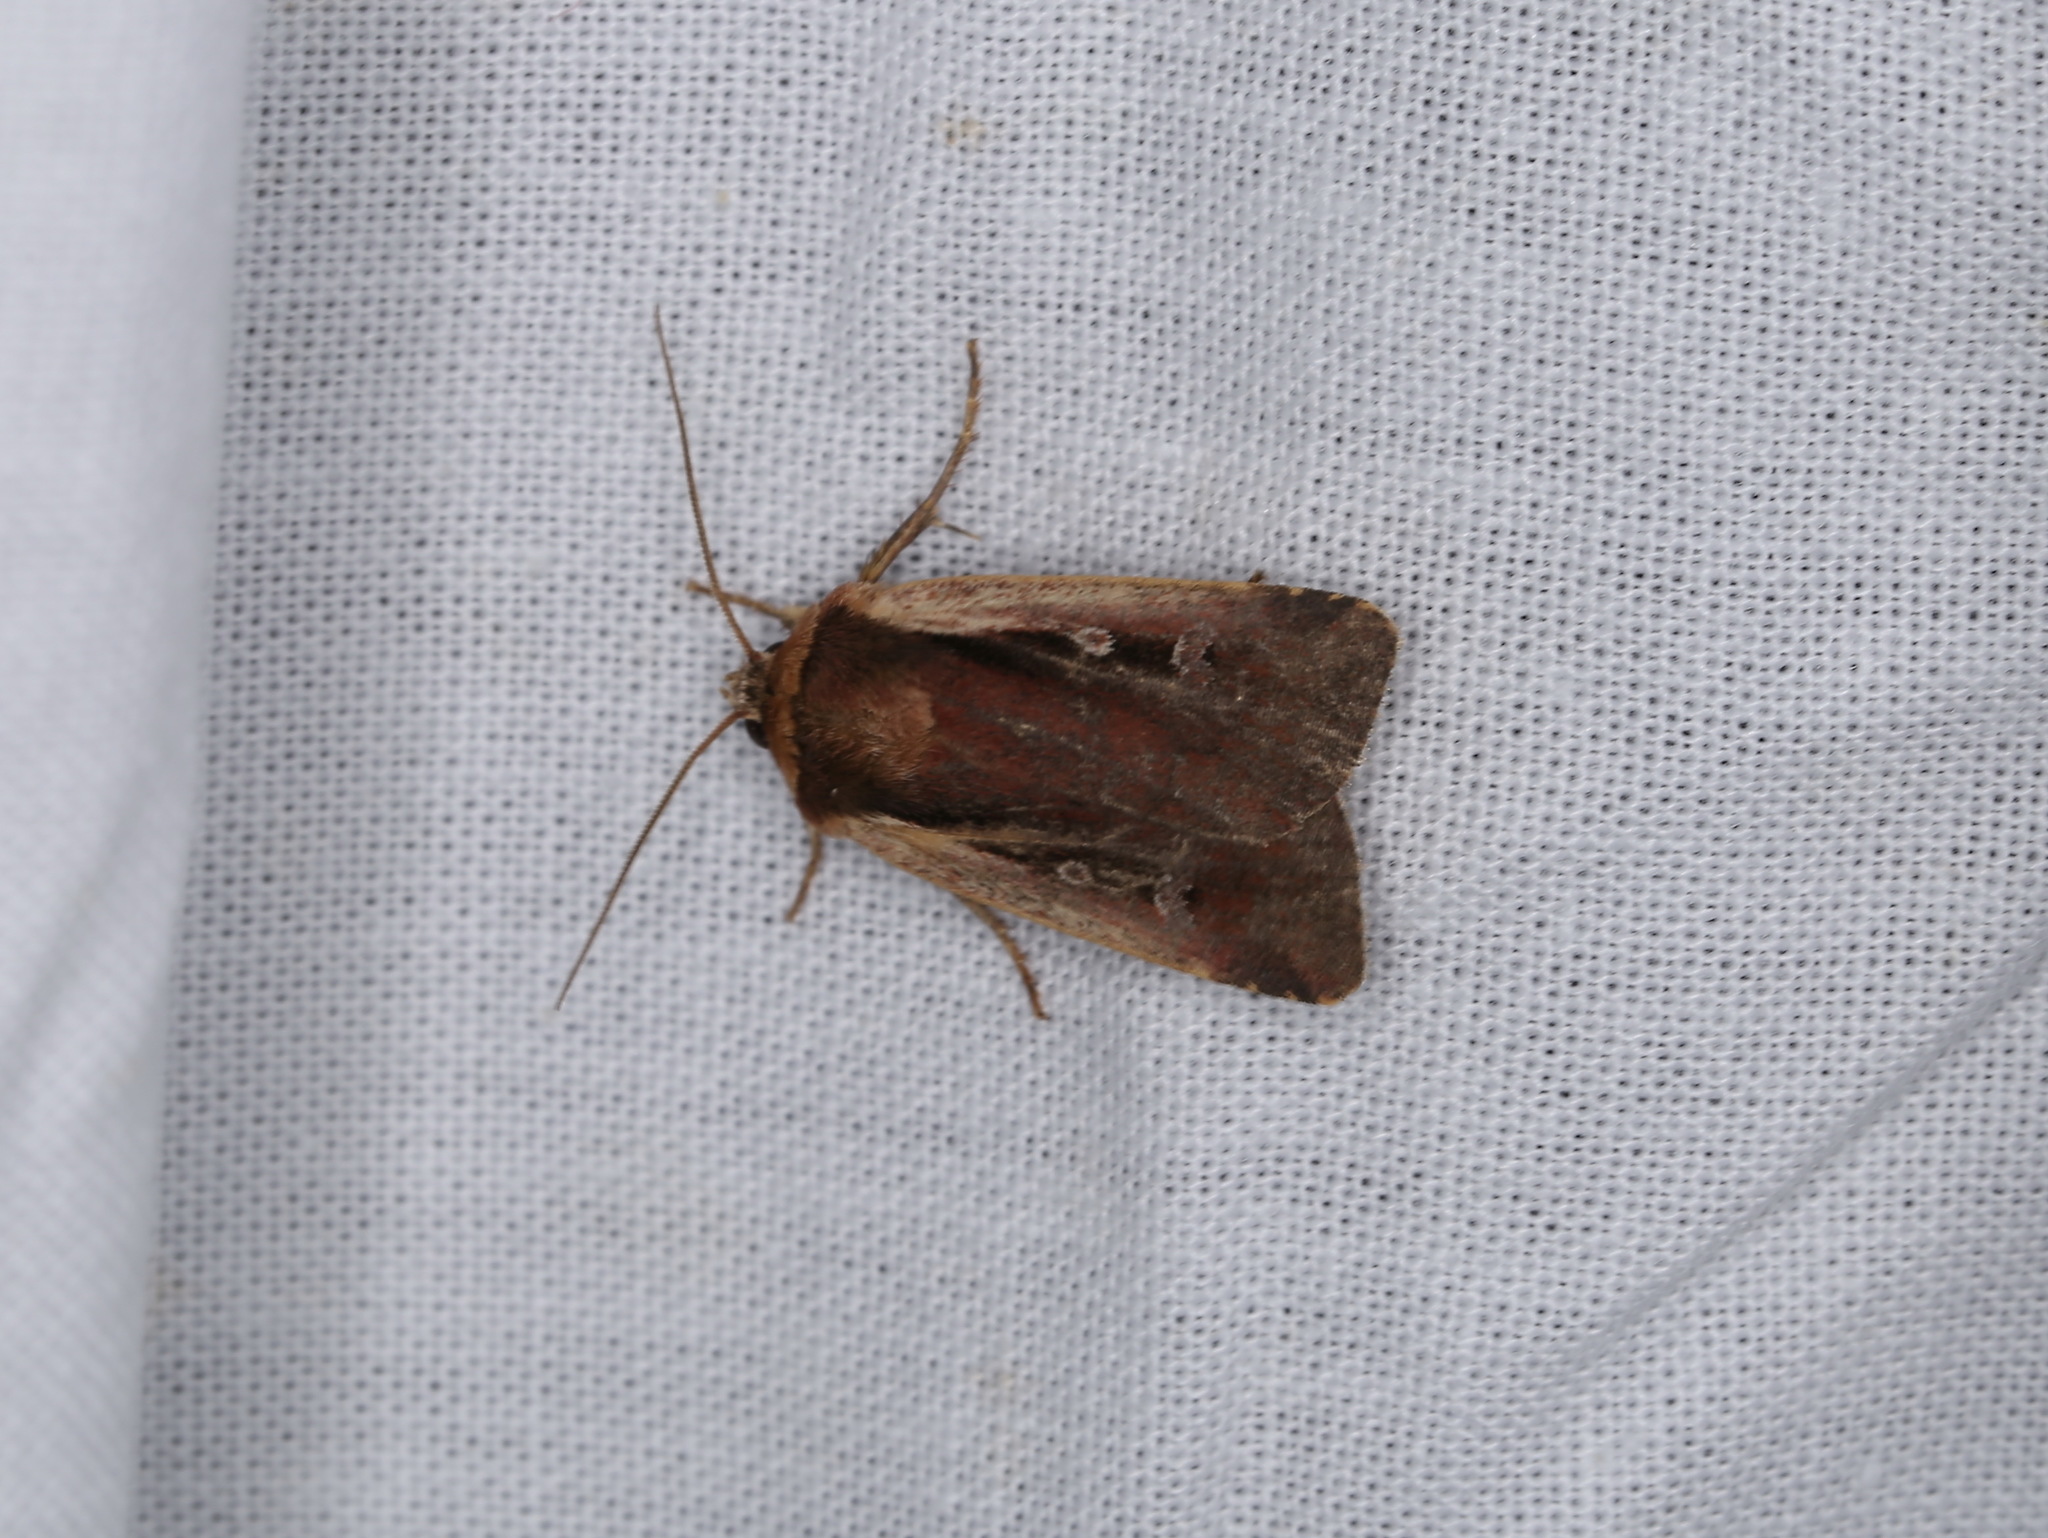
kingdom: Animalia
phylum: Arthropoda
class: Insecta
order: Lepidoptera
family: Noctuidae
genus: Ochropleura
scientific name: Ochropleura plecta
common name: Flame shoulder
